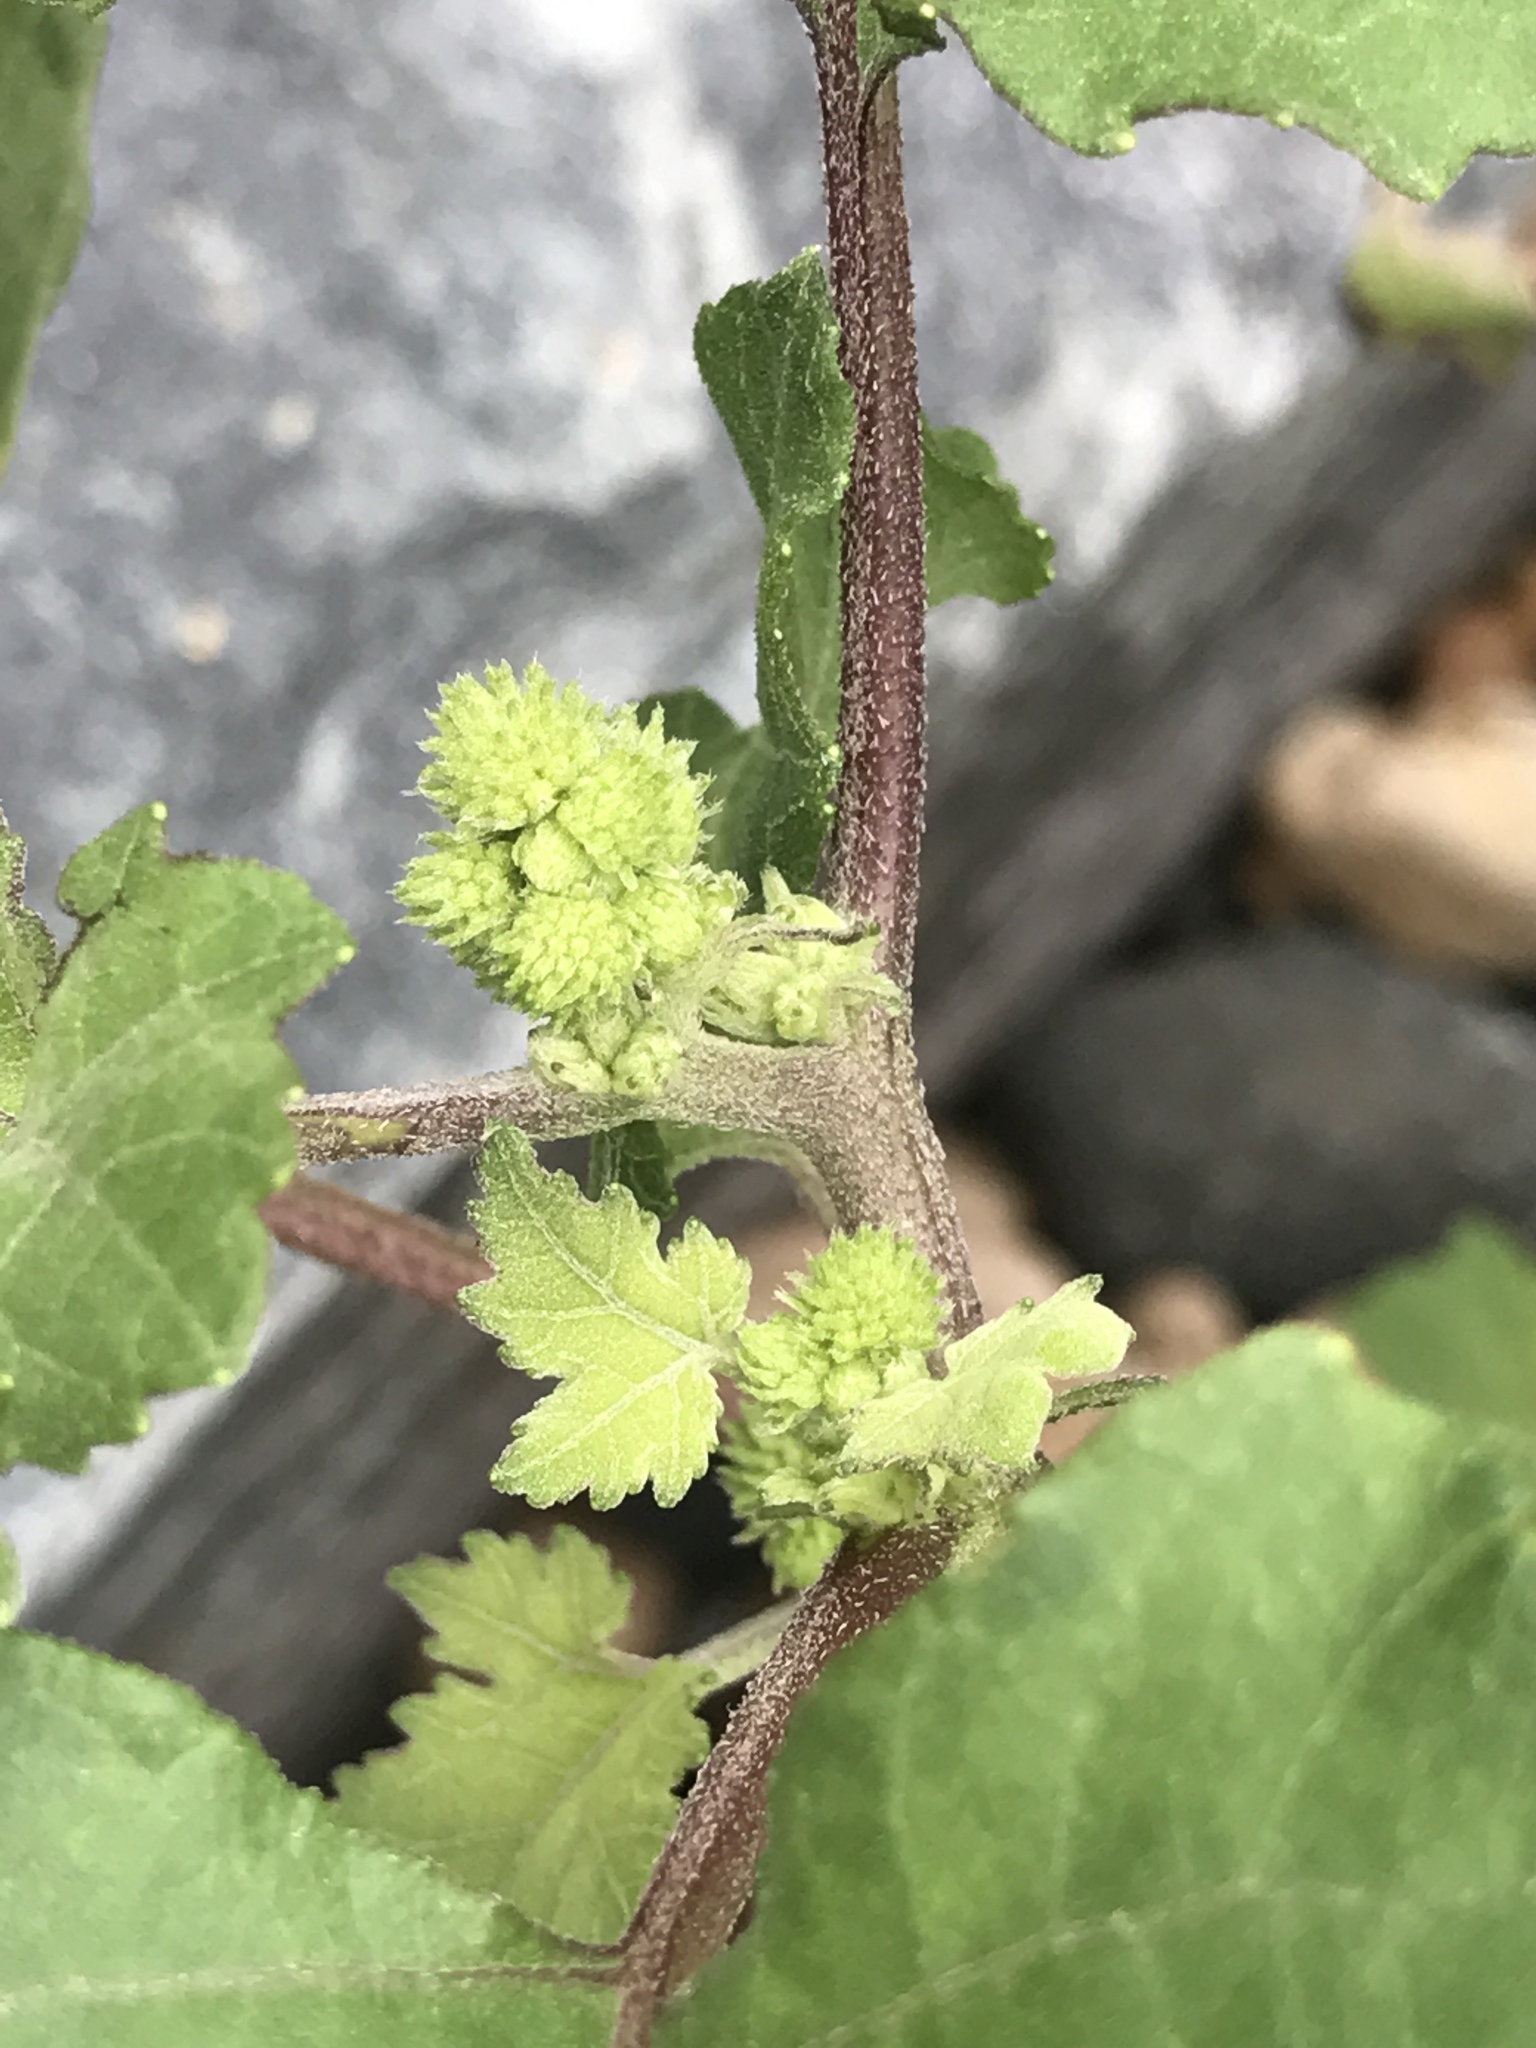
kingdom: Plantae
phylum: Tracheophyta
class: Magnoliopsida
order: Asterales
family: Asteraceae
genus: Xanthium
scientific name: Xanthium strumarium
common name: Rough cocklebur
